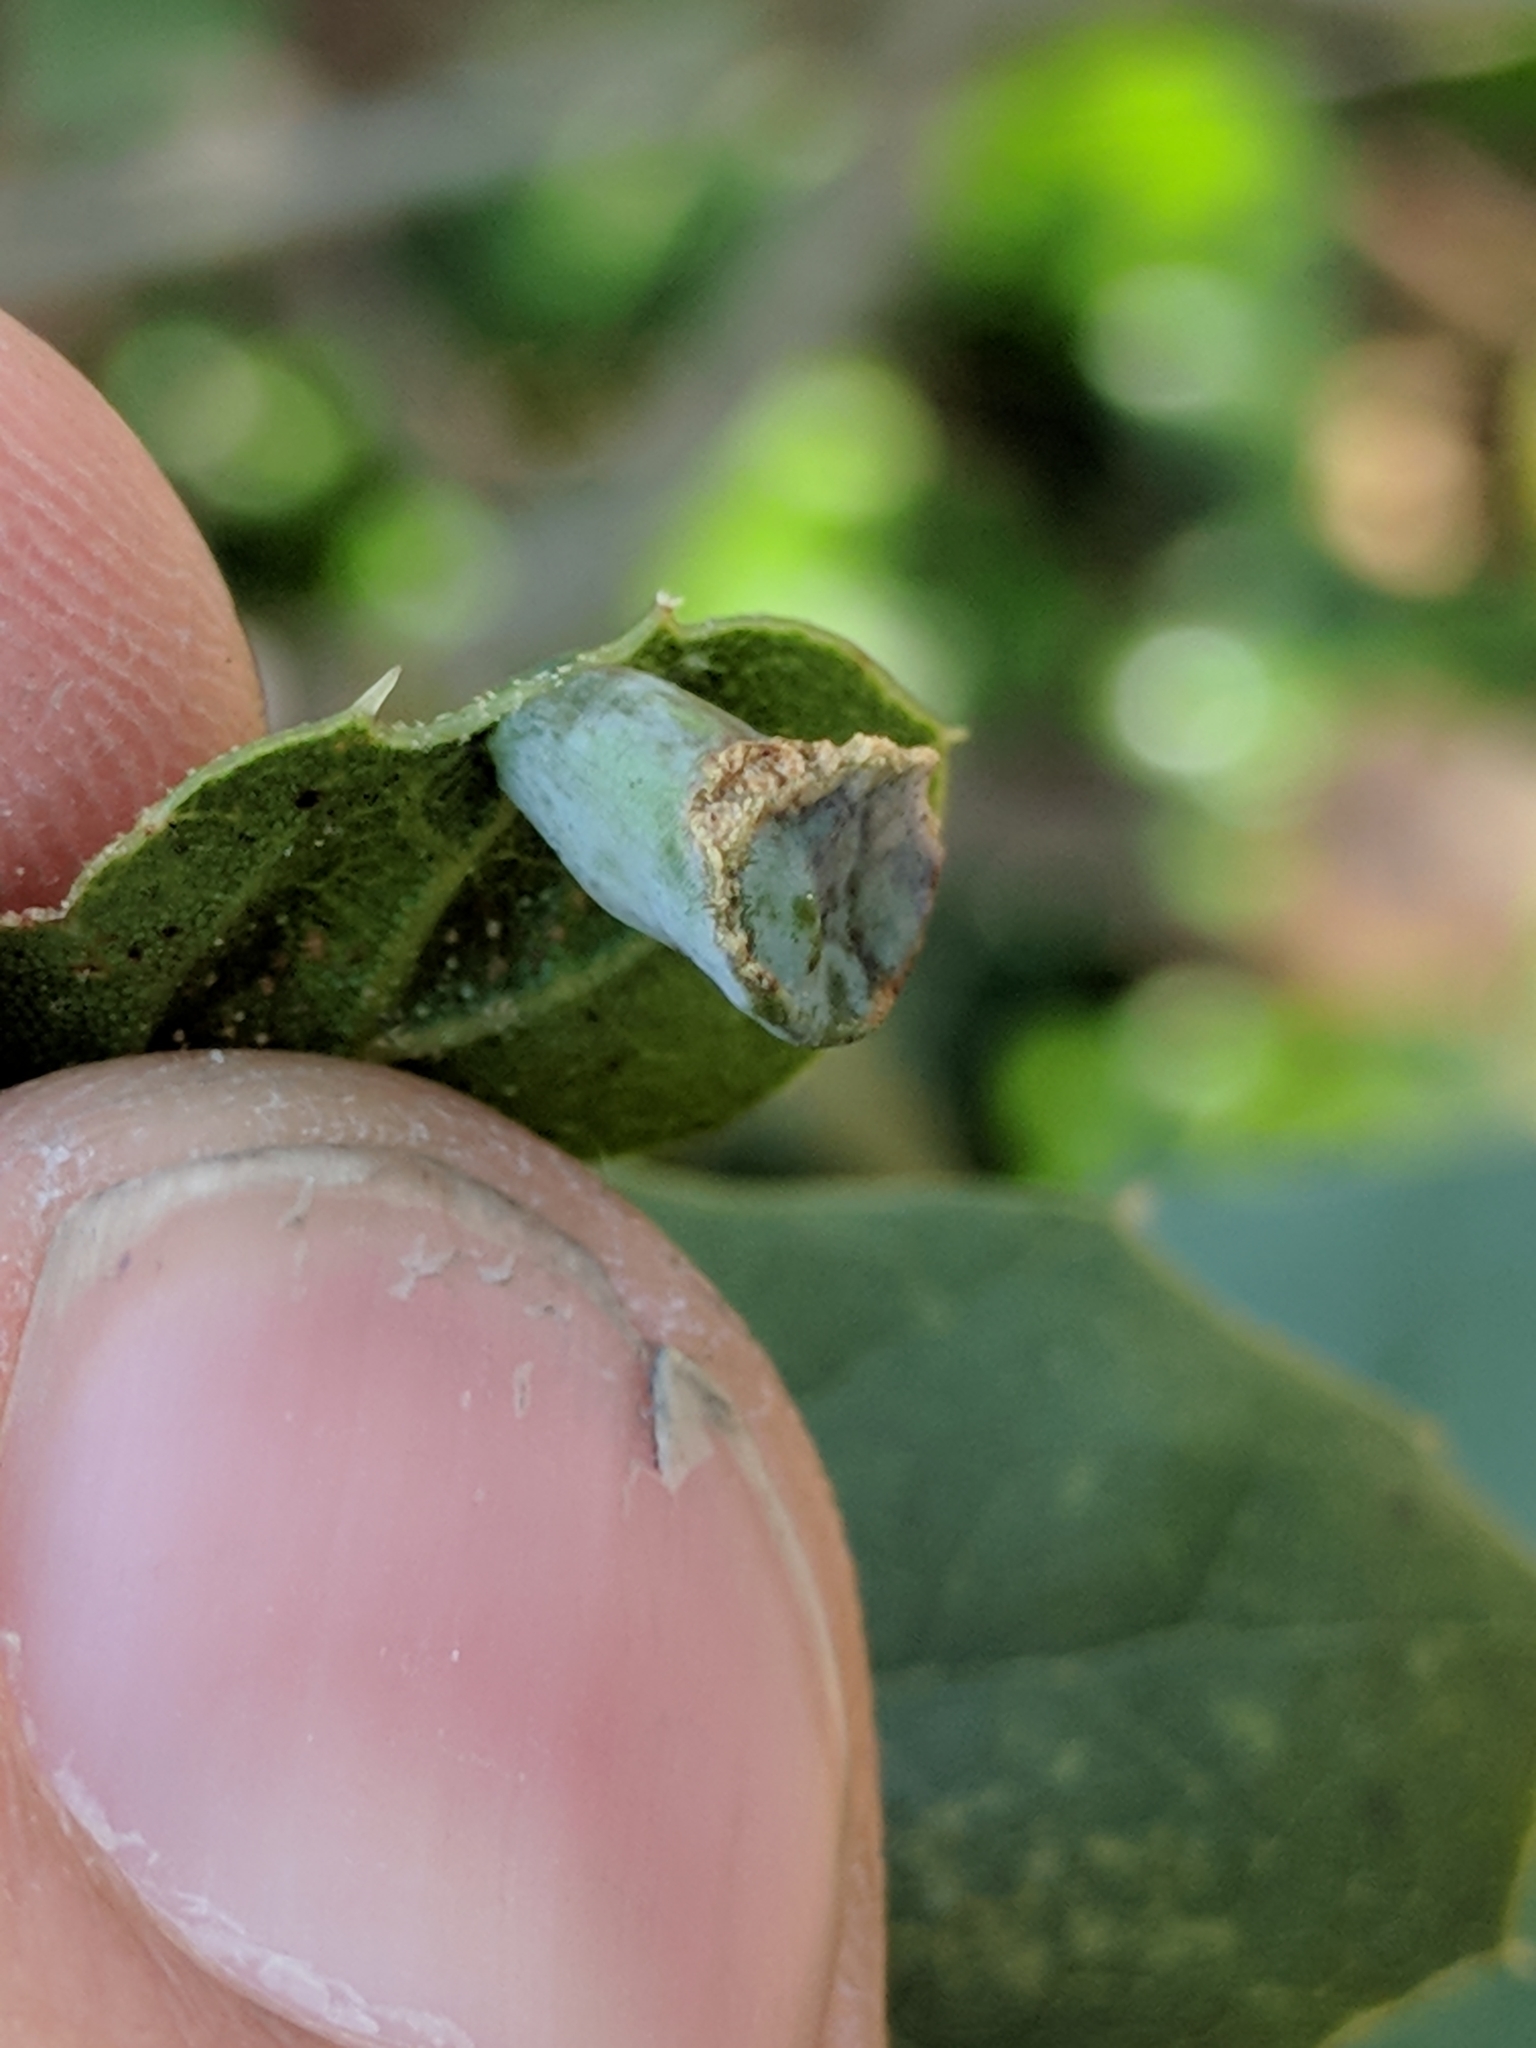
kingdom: Animalia
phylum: Arthropoda
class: Insecta
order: Hymenoptera
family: Cynipidae
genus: Amphibolips
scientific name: Amphibolips quercuspomiformis
